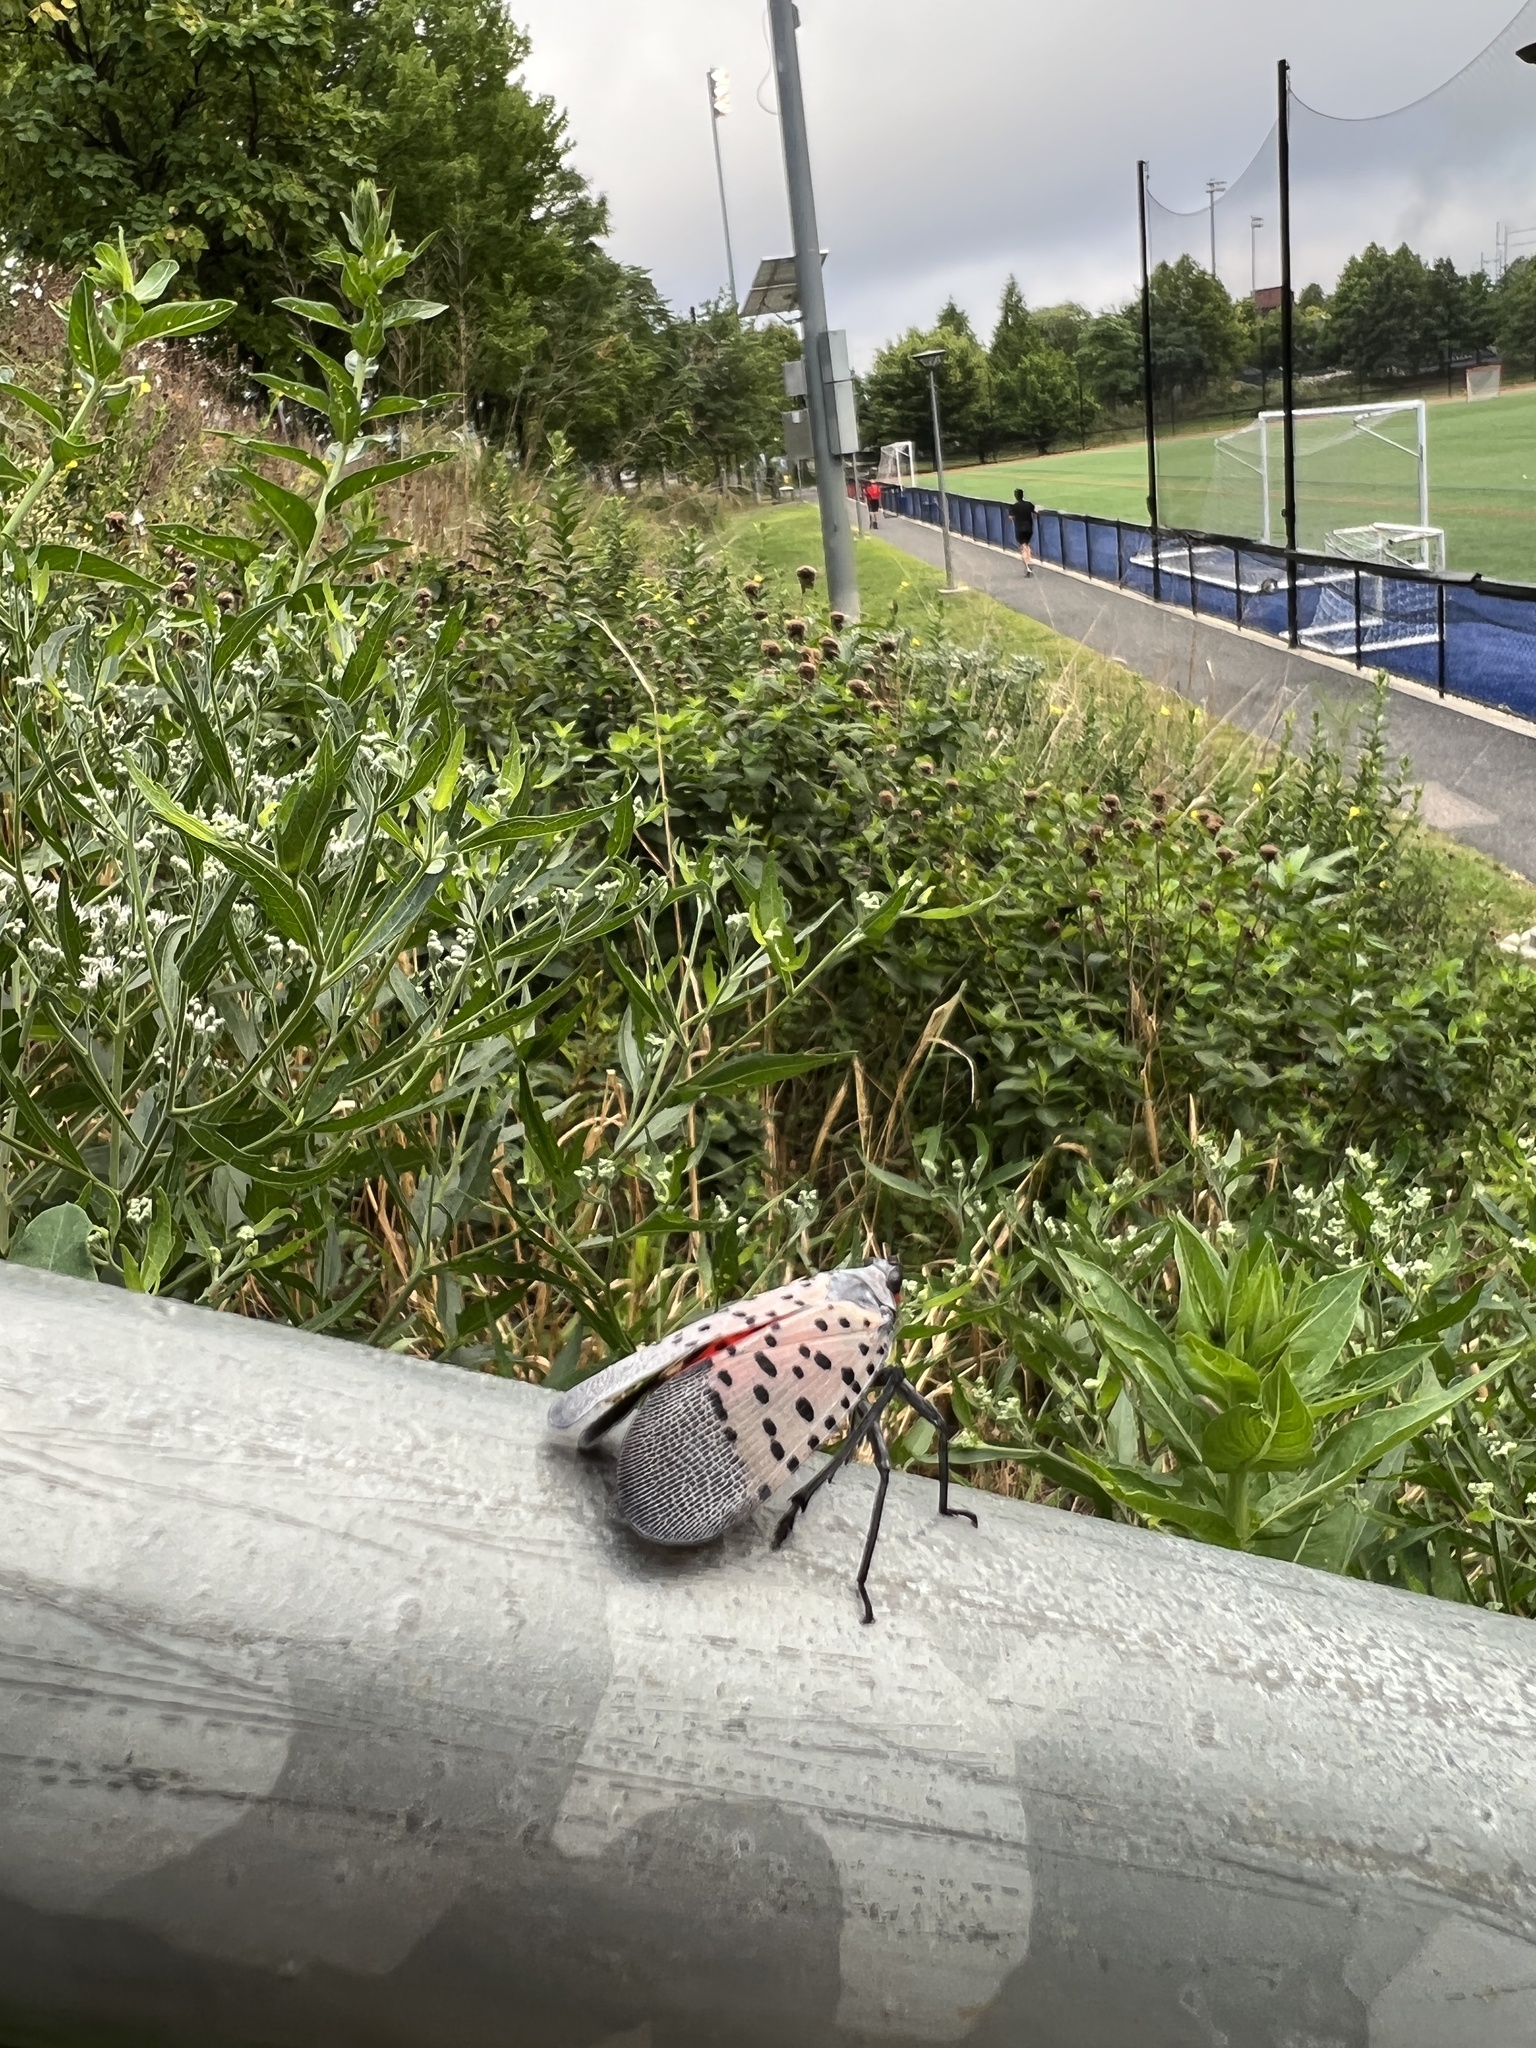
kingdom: Animalia
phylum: Arthropoda
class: Insecta
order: Hemiptera
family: Fulgoridae
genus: Lycorma
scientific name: Lycorma delicatula
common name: Spotted lanternfly
